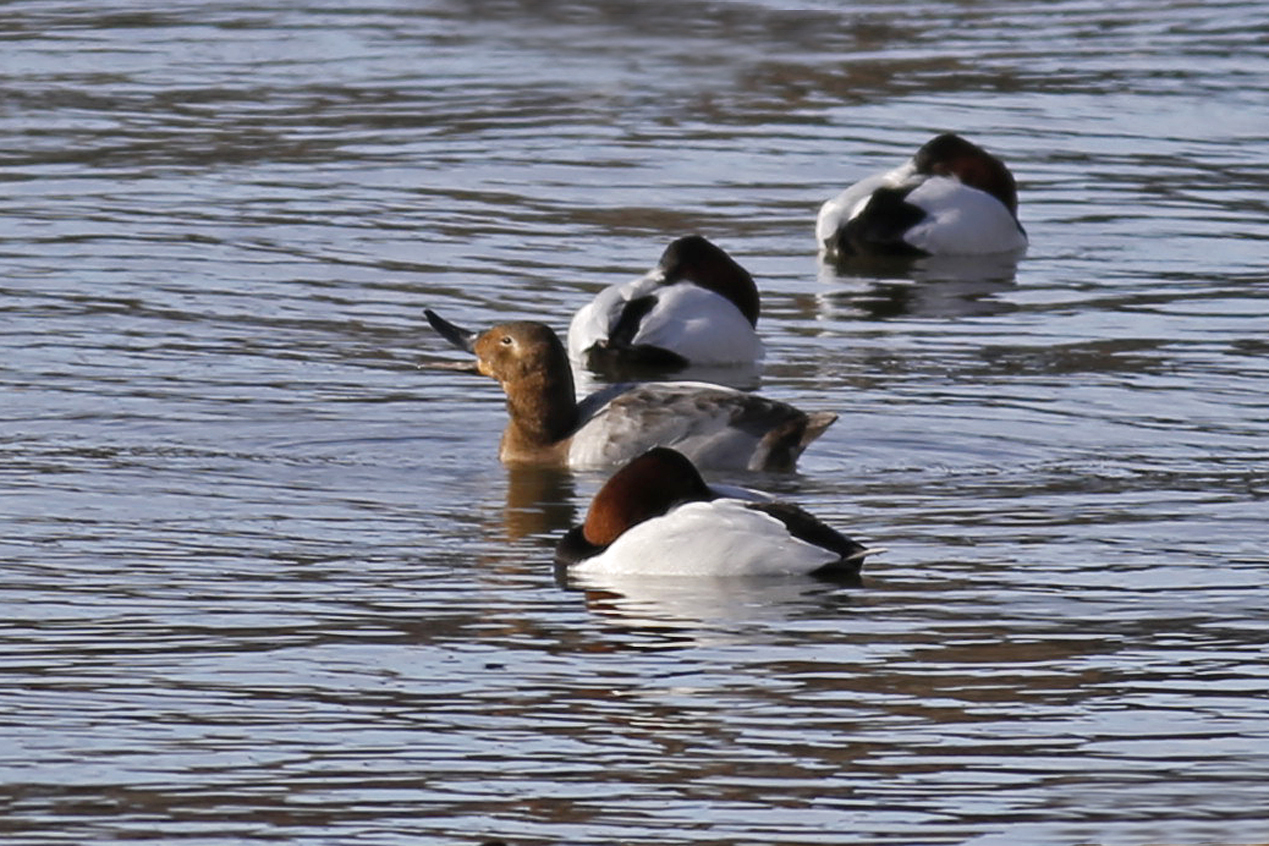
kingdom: Animalia
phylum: Chordata
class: Aves
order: Anseriformes
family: Anatidae
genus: Aythya
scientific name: Aythya valisineria
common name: Canvasback
